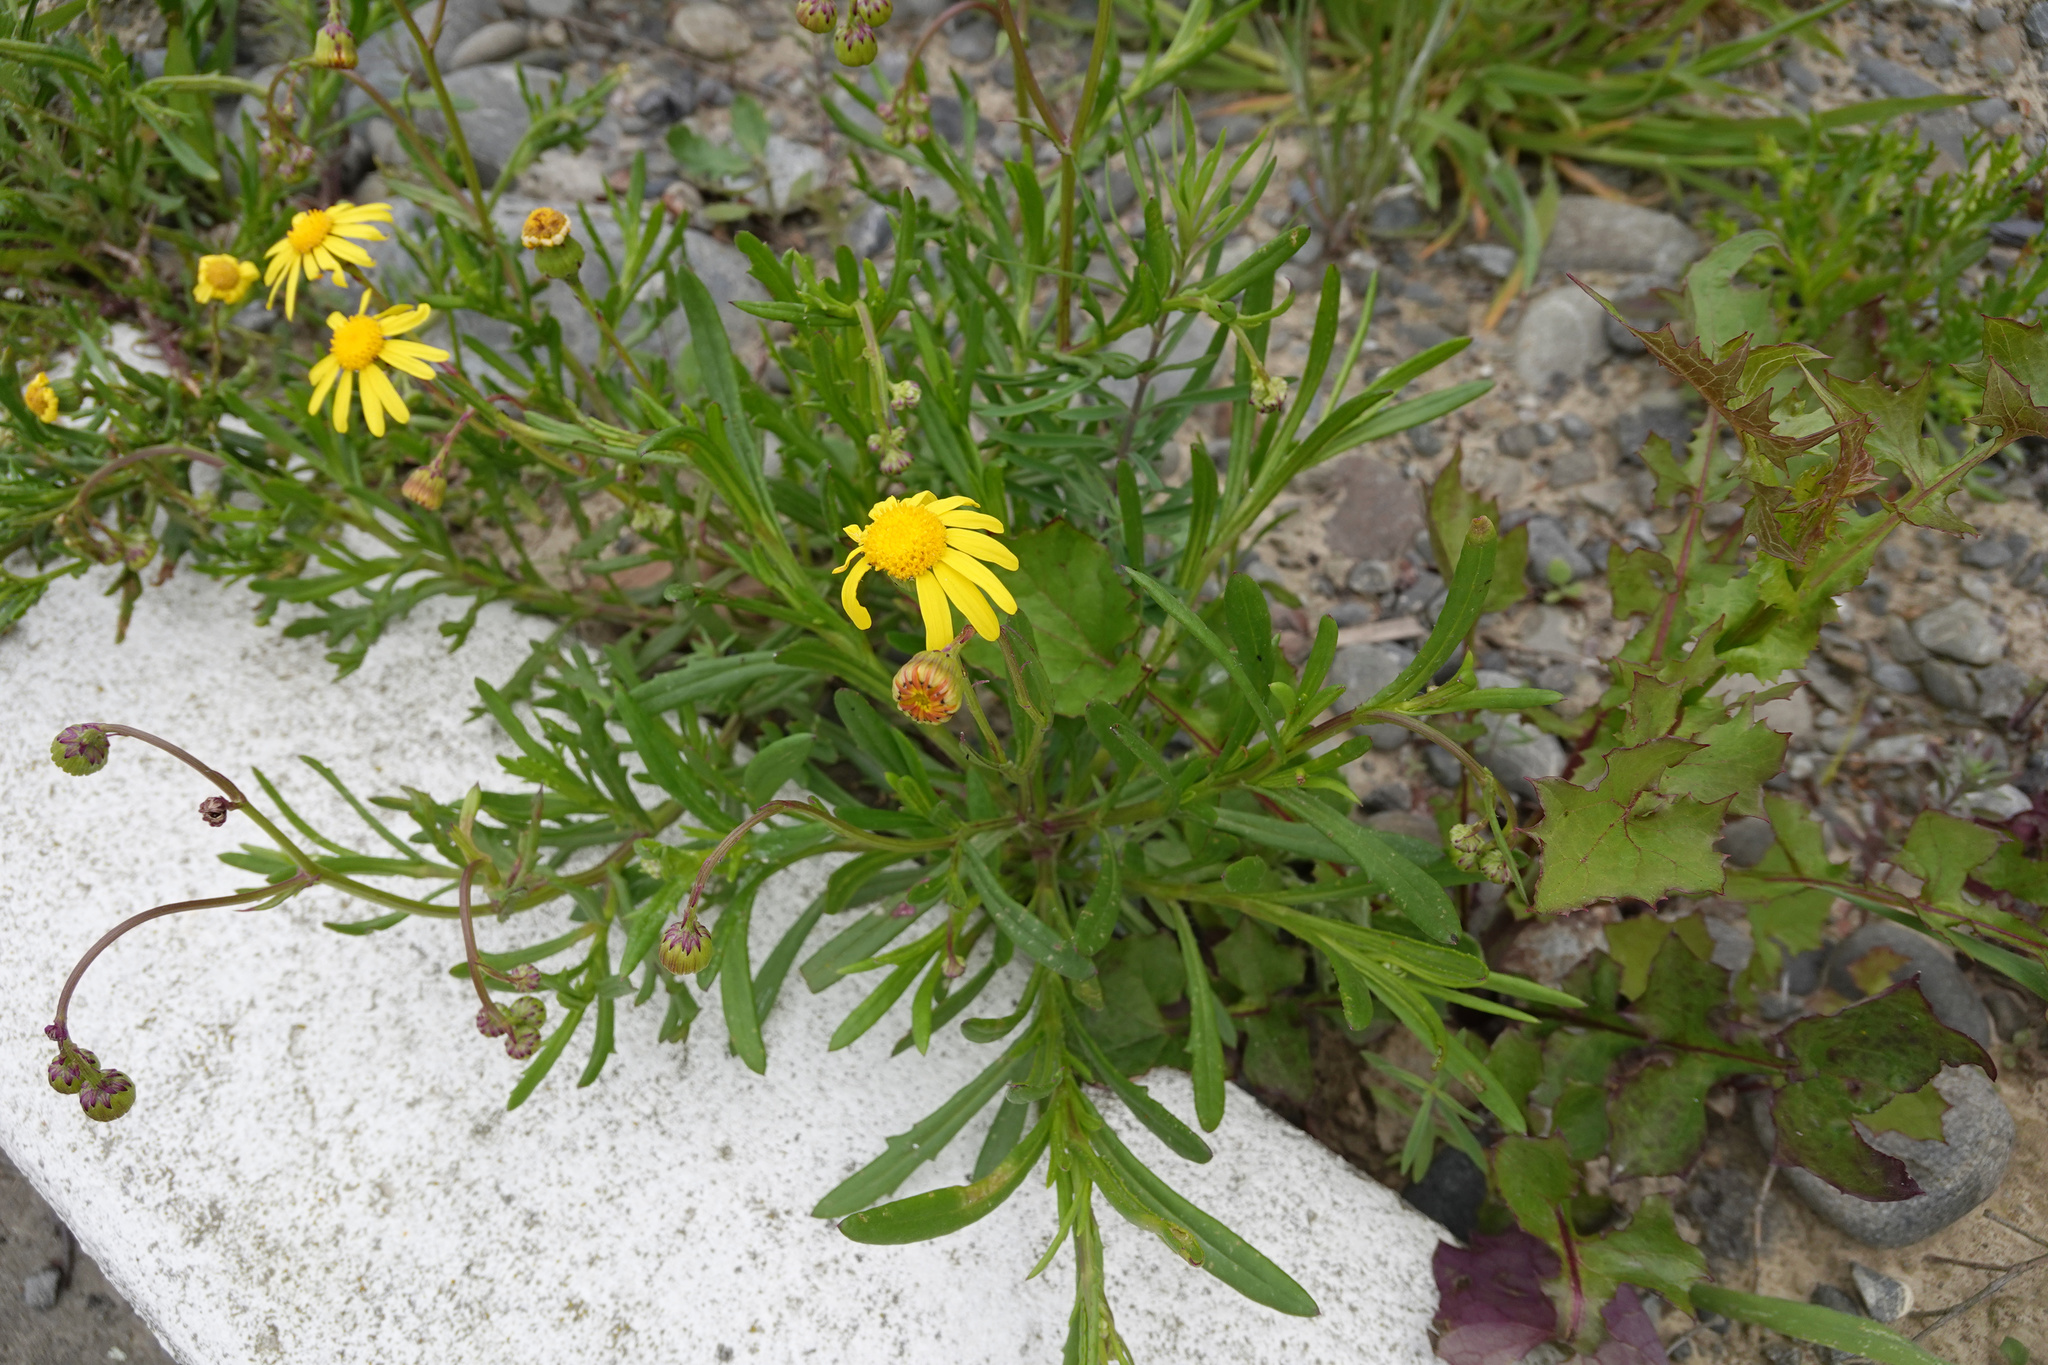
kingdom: Plantae
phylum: Tracheophyta
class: Magnoliopsida
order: Asterales
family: Asteraceae
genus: Senecio
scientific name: Senecio skirrhodon
